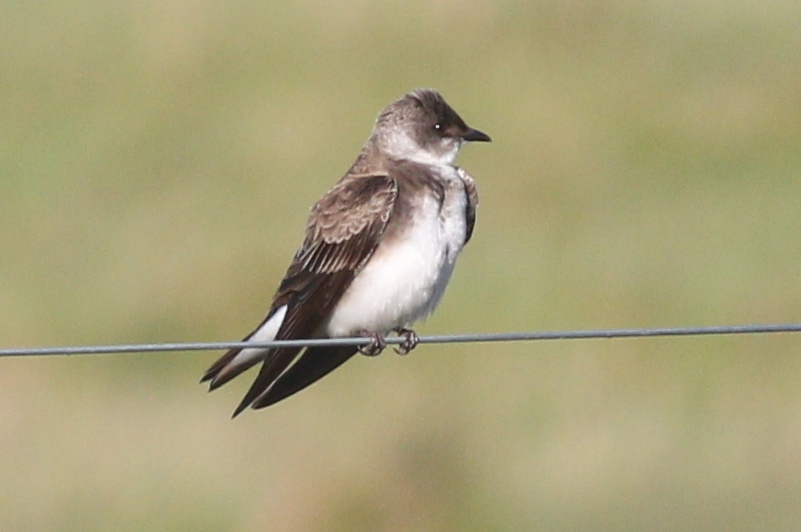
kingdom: Animalia
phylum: Chordata
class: Aves
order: Passeriformes
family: Hirundinidae
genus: Progne
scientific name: Progne tapera
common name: Brown-chested martin
